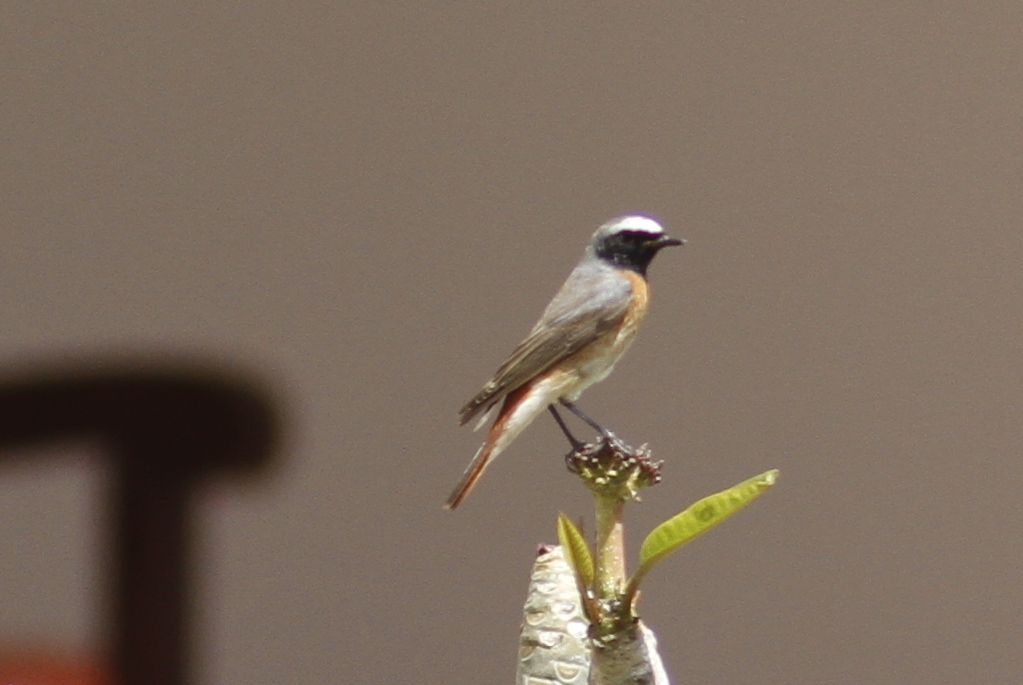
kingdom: Animalia
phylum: Chordata
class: Aves
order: Passeriformes
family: Muscicapidae
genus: Phoenicurus
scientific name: Phoenicurus phoenicurus
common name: Common redstart
